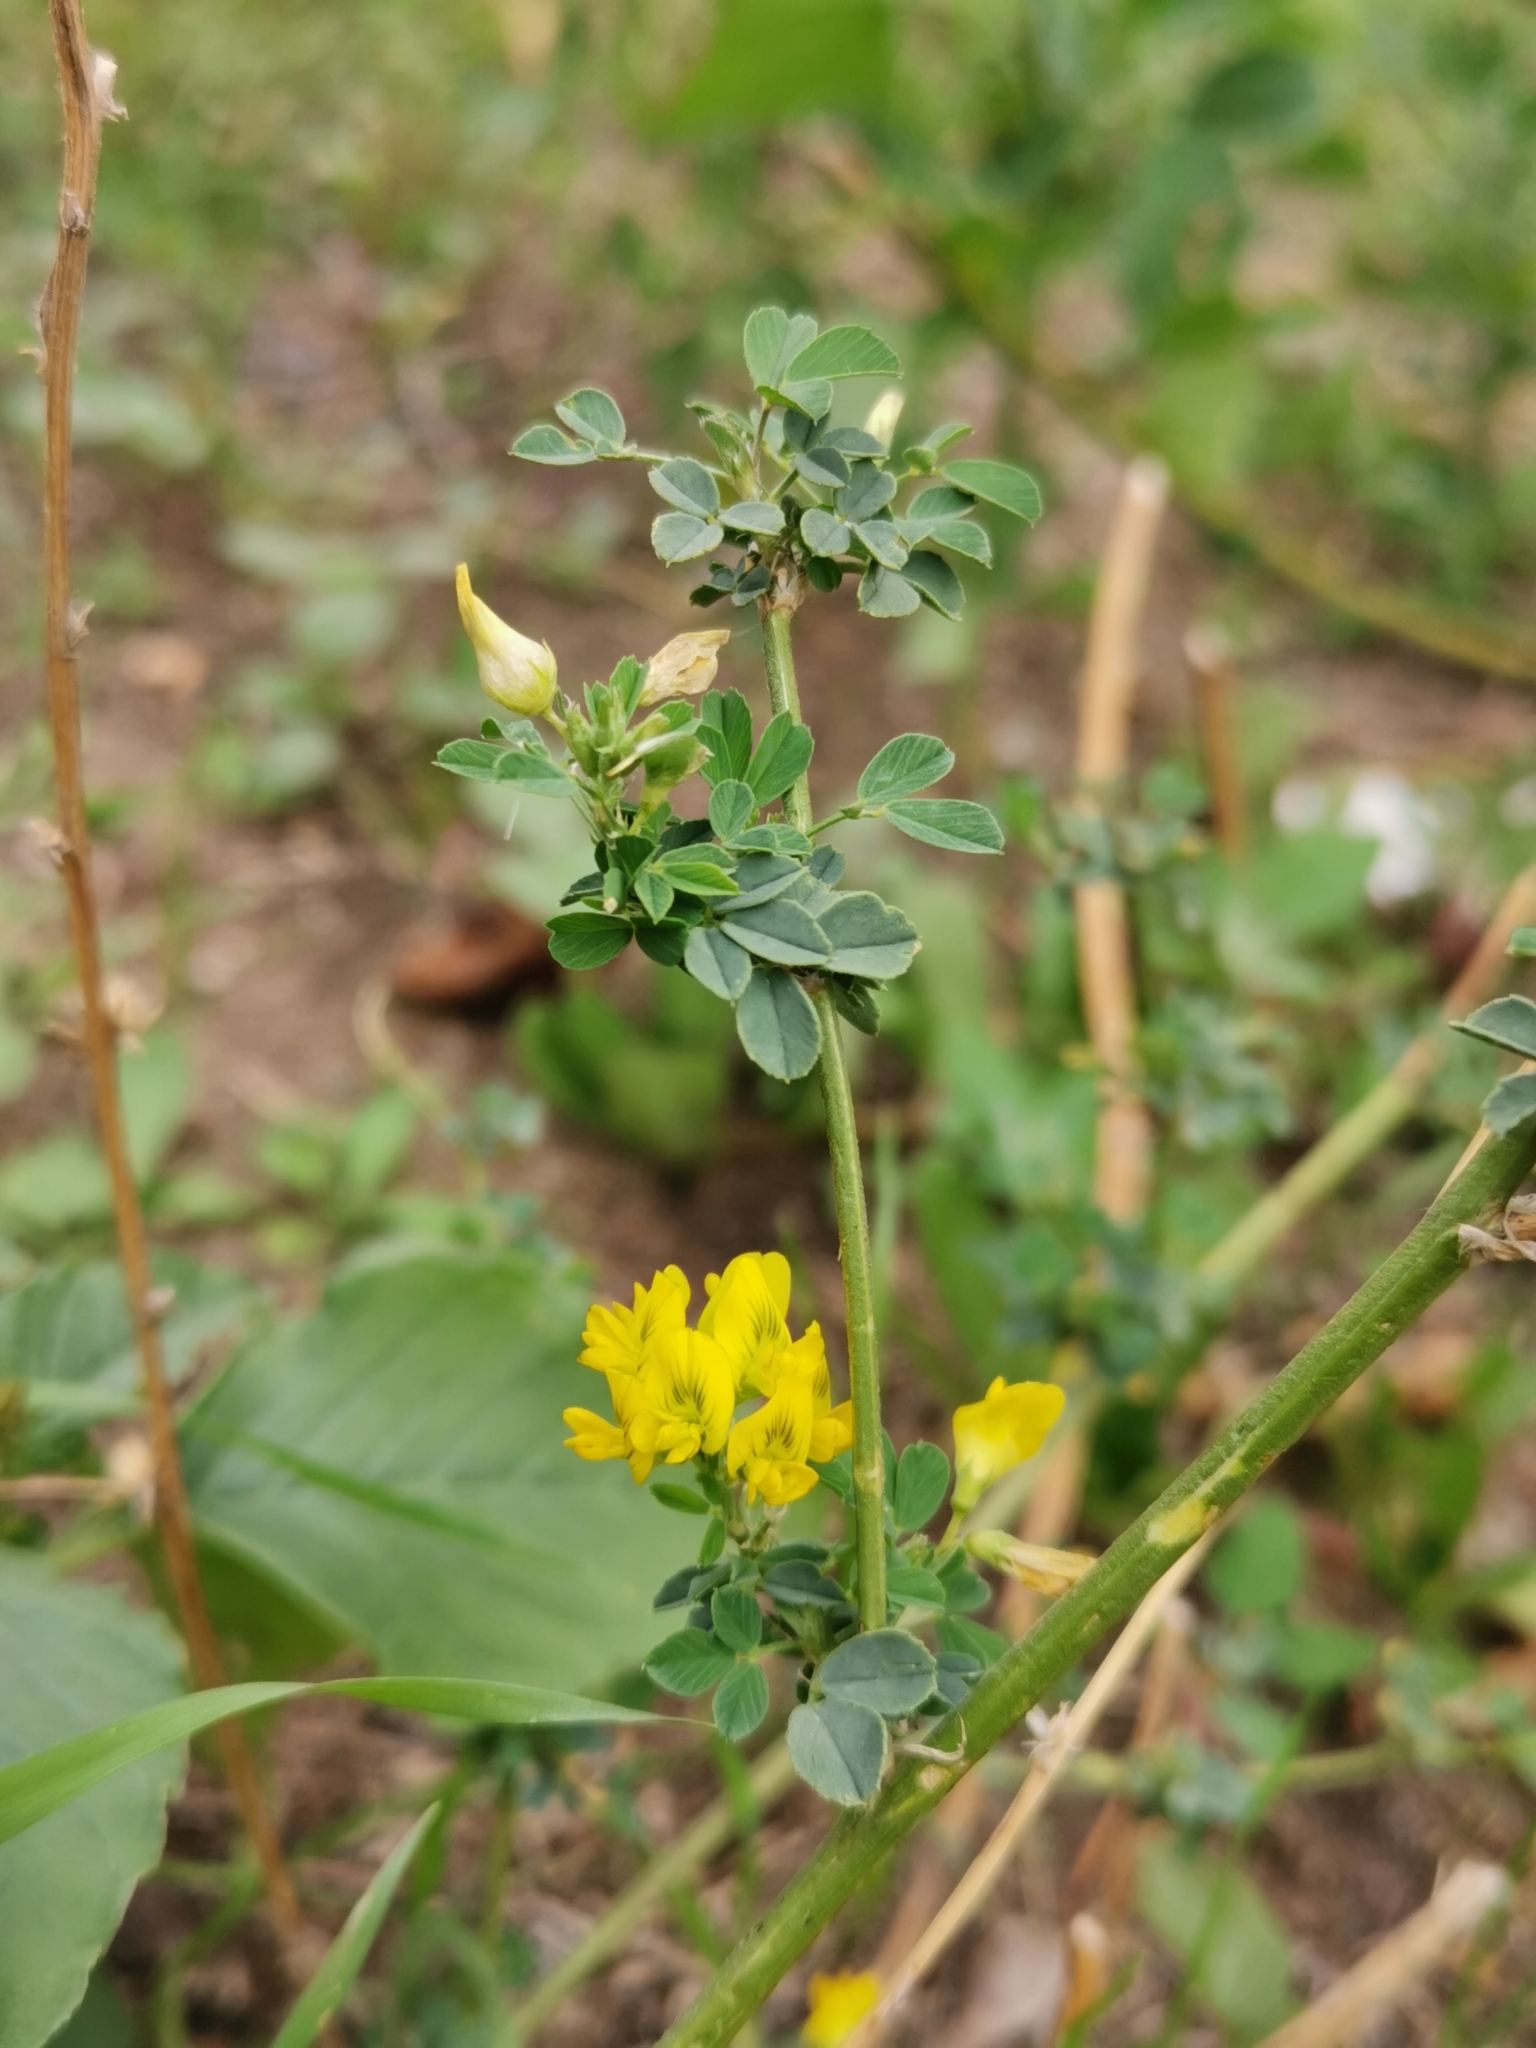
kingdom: Plantae
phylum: Tracheophyta
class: Magnoliopsida
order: Fabales
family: Fabaceae
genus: Medicago
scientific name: Medicago falcata
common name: Sickle medick
